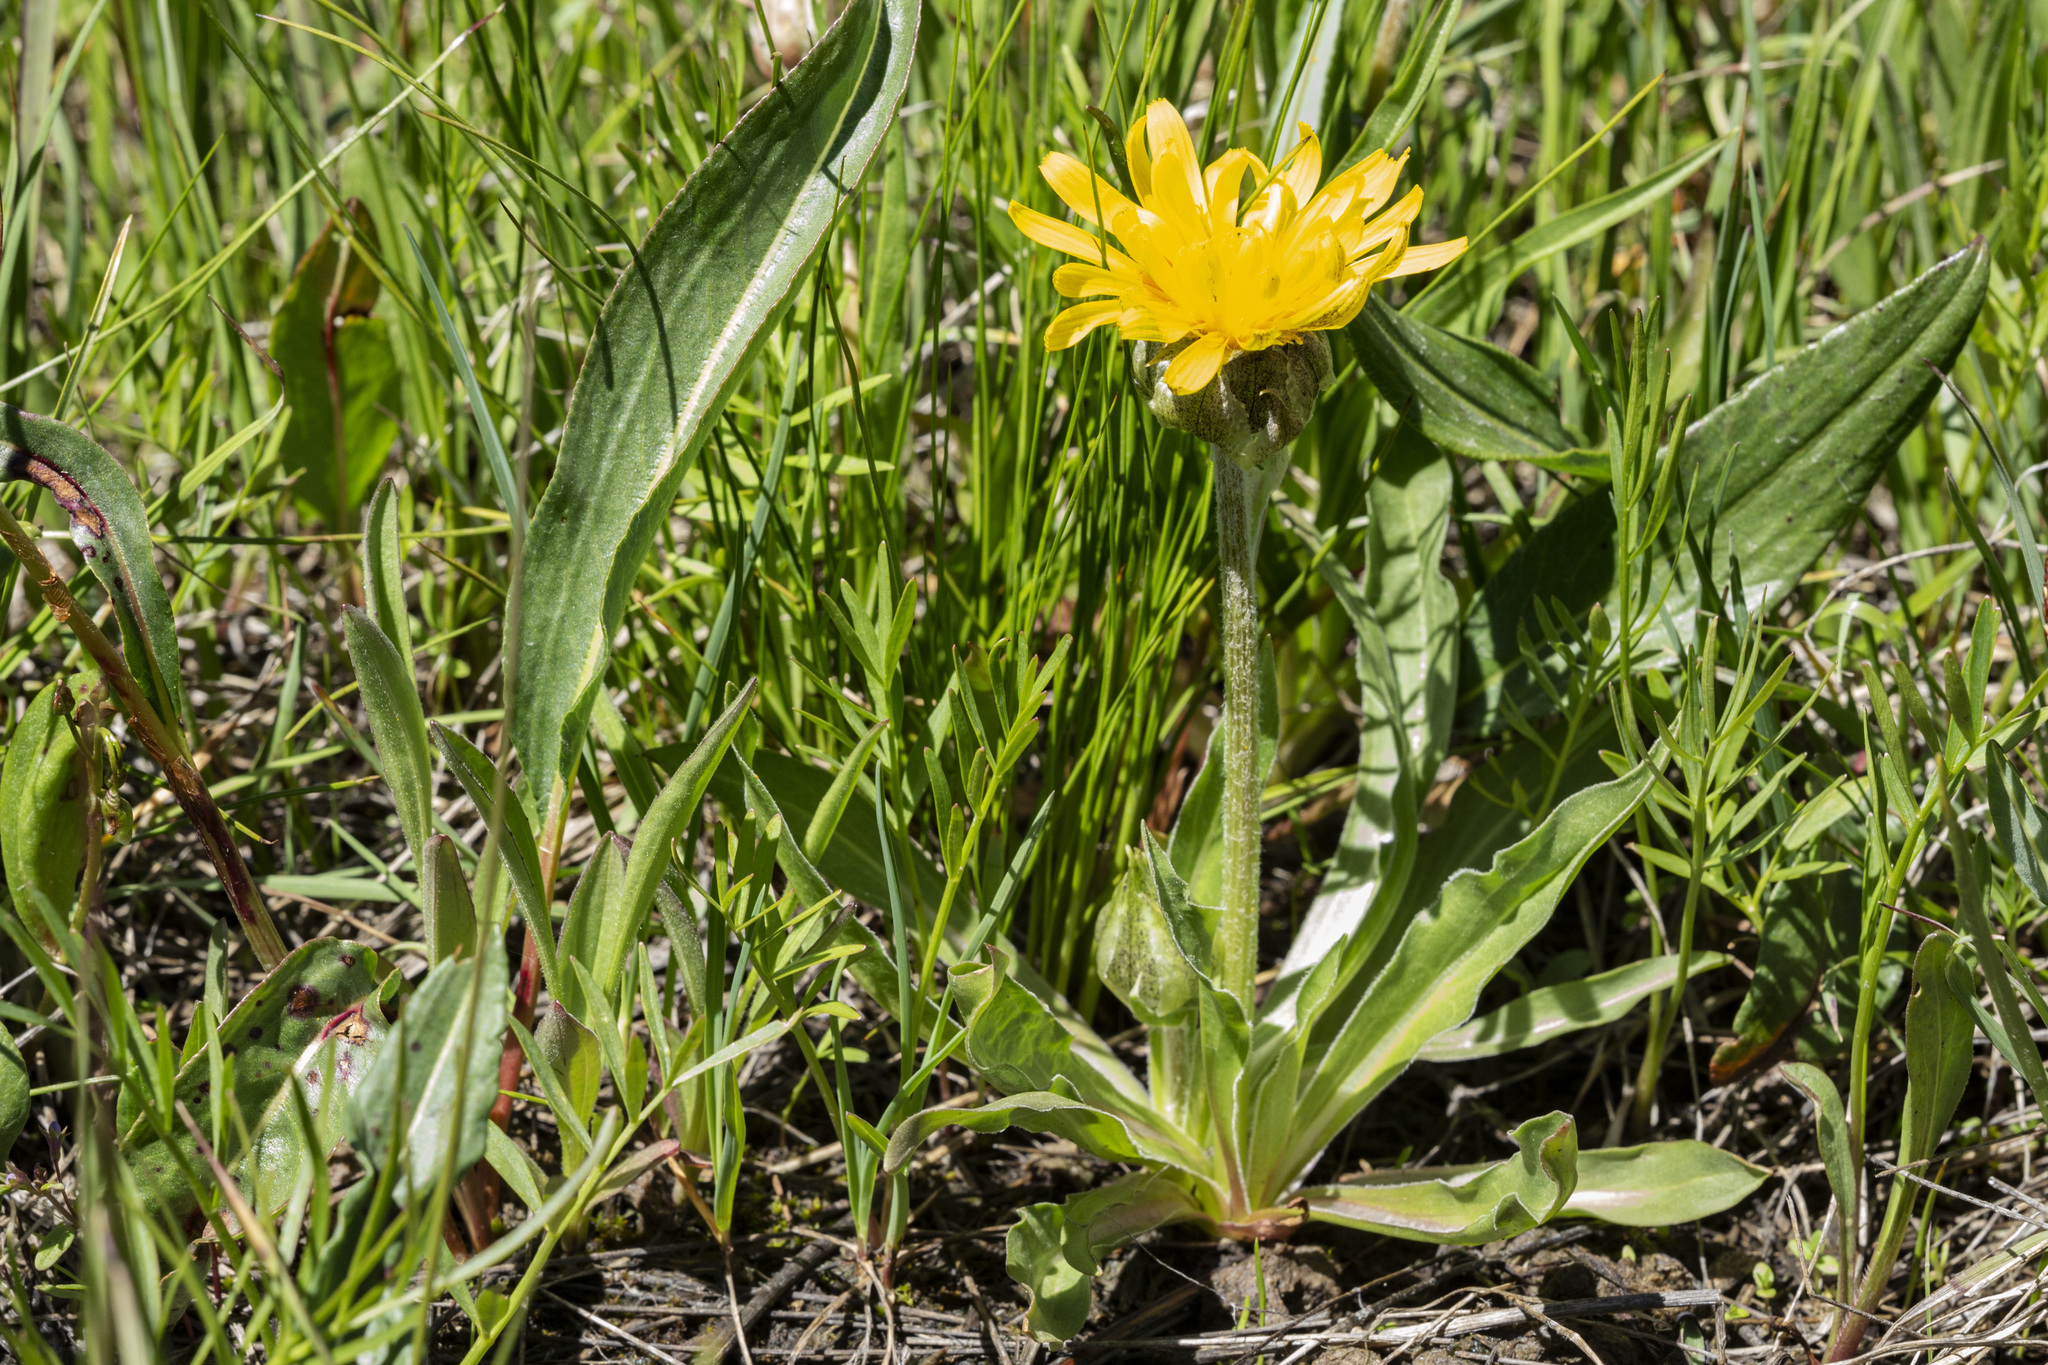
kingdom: Plantae
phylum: Tracheophyta
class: Magnoliopsida
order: Asterales
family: Asteraceae
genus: Microseris
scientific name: Microseris nigrescens
